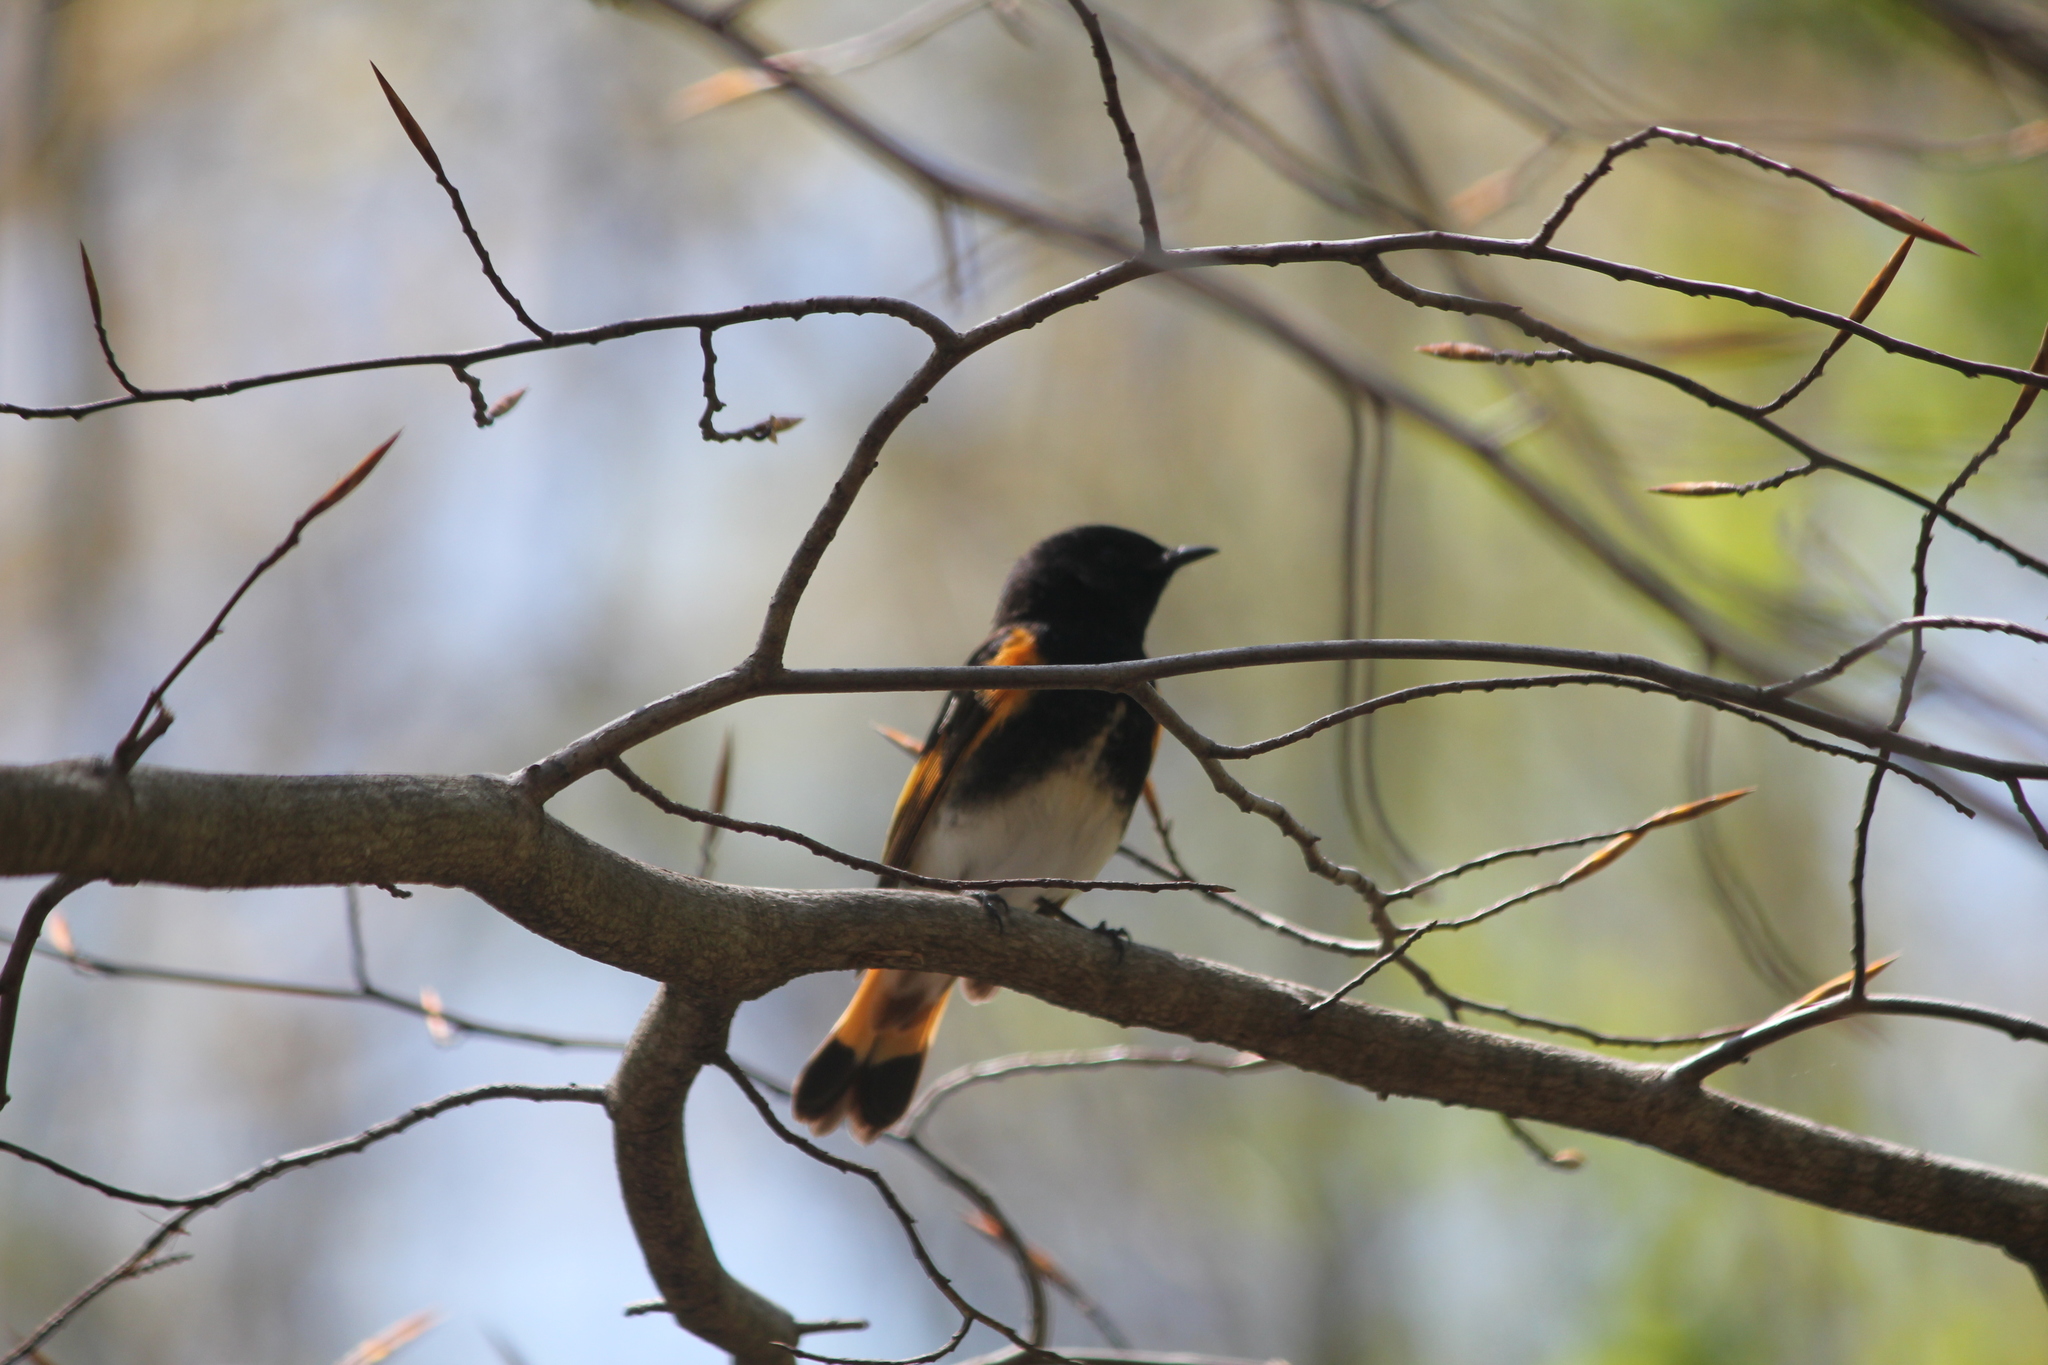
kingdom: Animalia
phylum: Chordata
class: Aves
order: Passeriformes
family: Parulidae
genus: Setophaga
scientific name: Setophaga ruticilla
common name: American redstart
